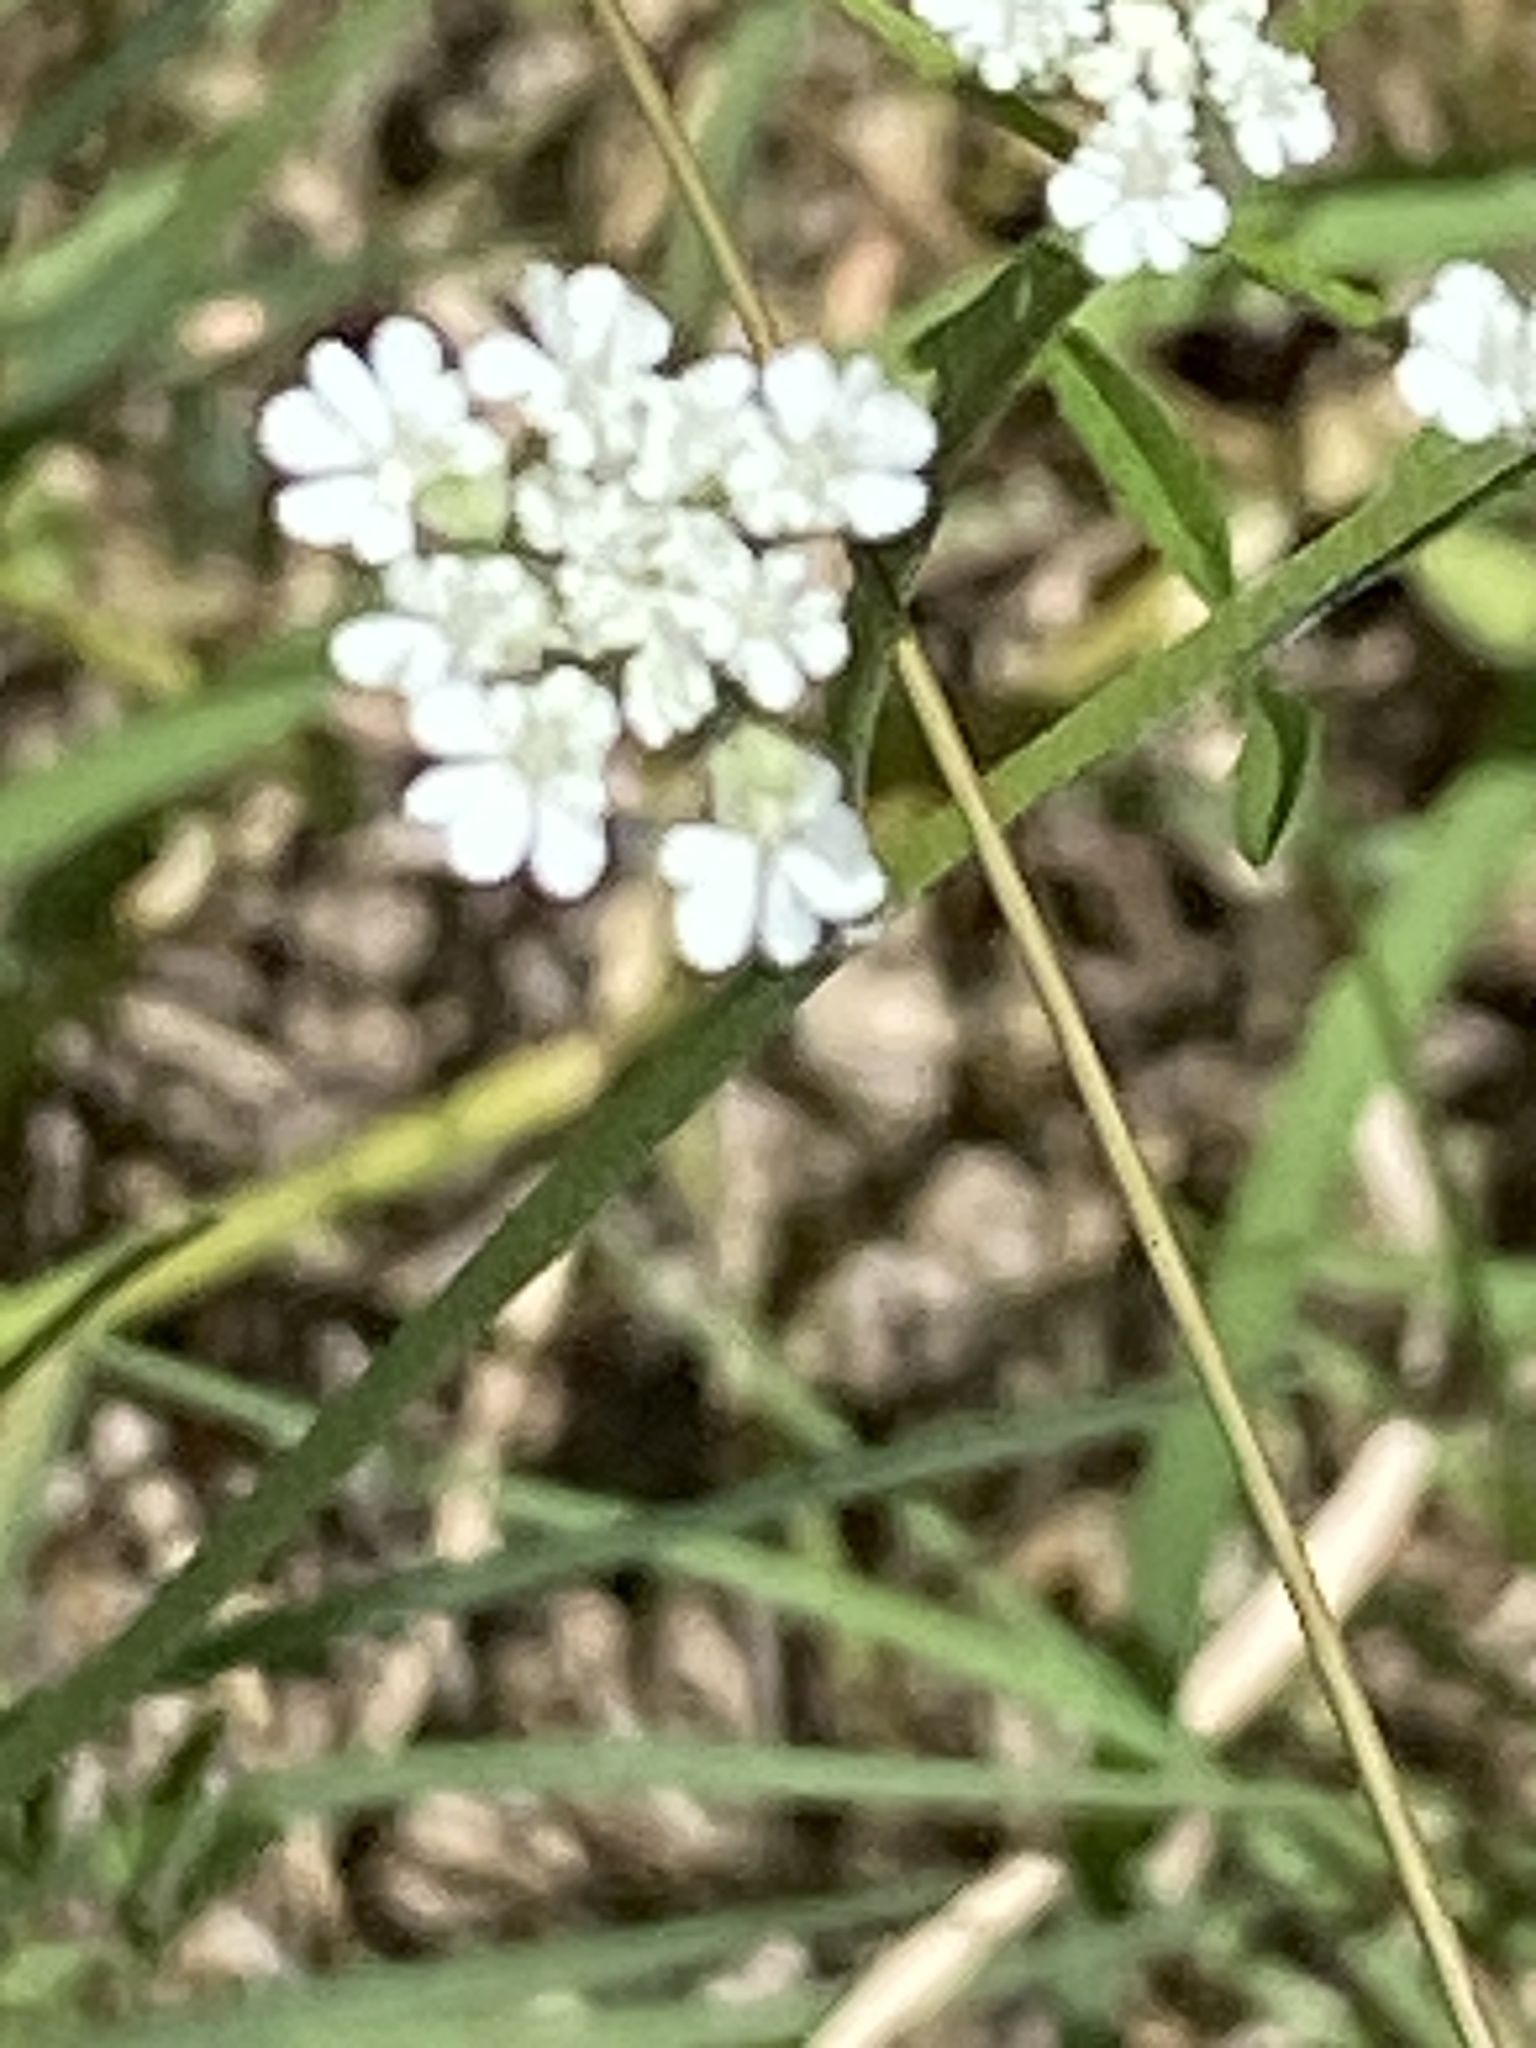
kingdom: Plantae
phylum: Tracheophyta
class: Magnoliopsida
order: Apiales
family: Apiaceae
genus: Torilis
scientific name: Torilis arvensis
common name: Spreading hedge-parsley
